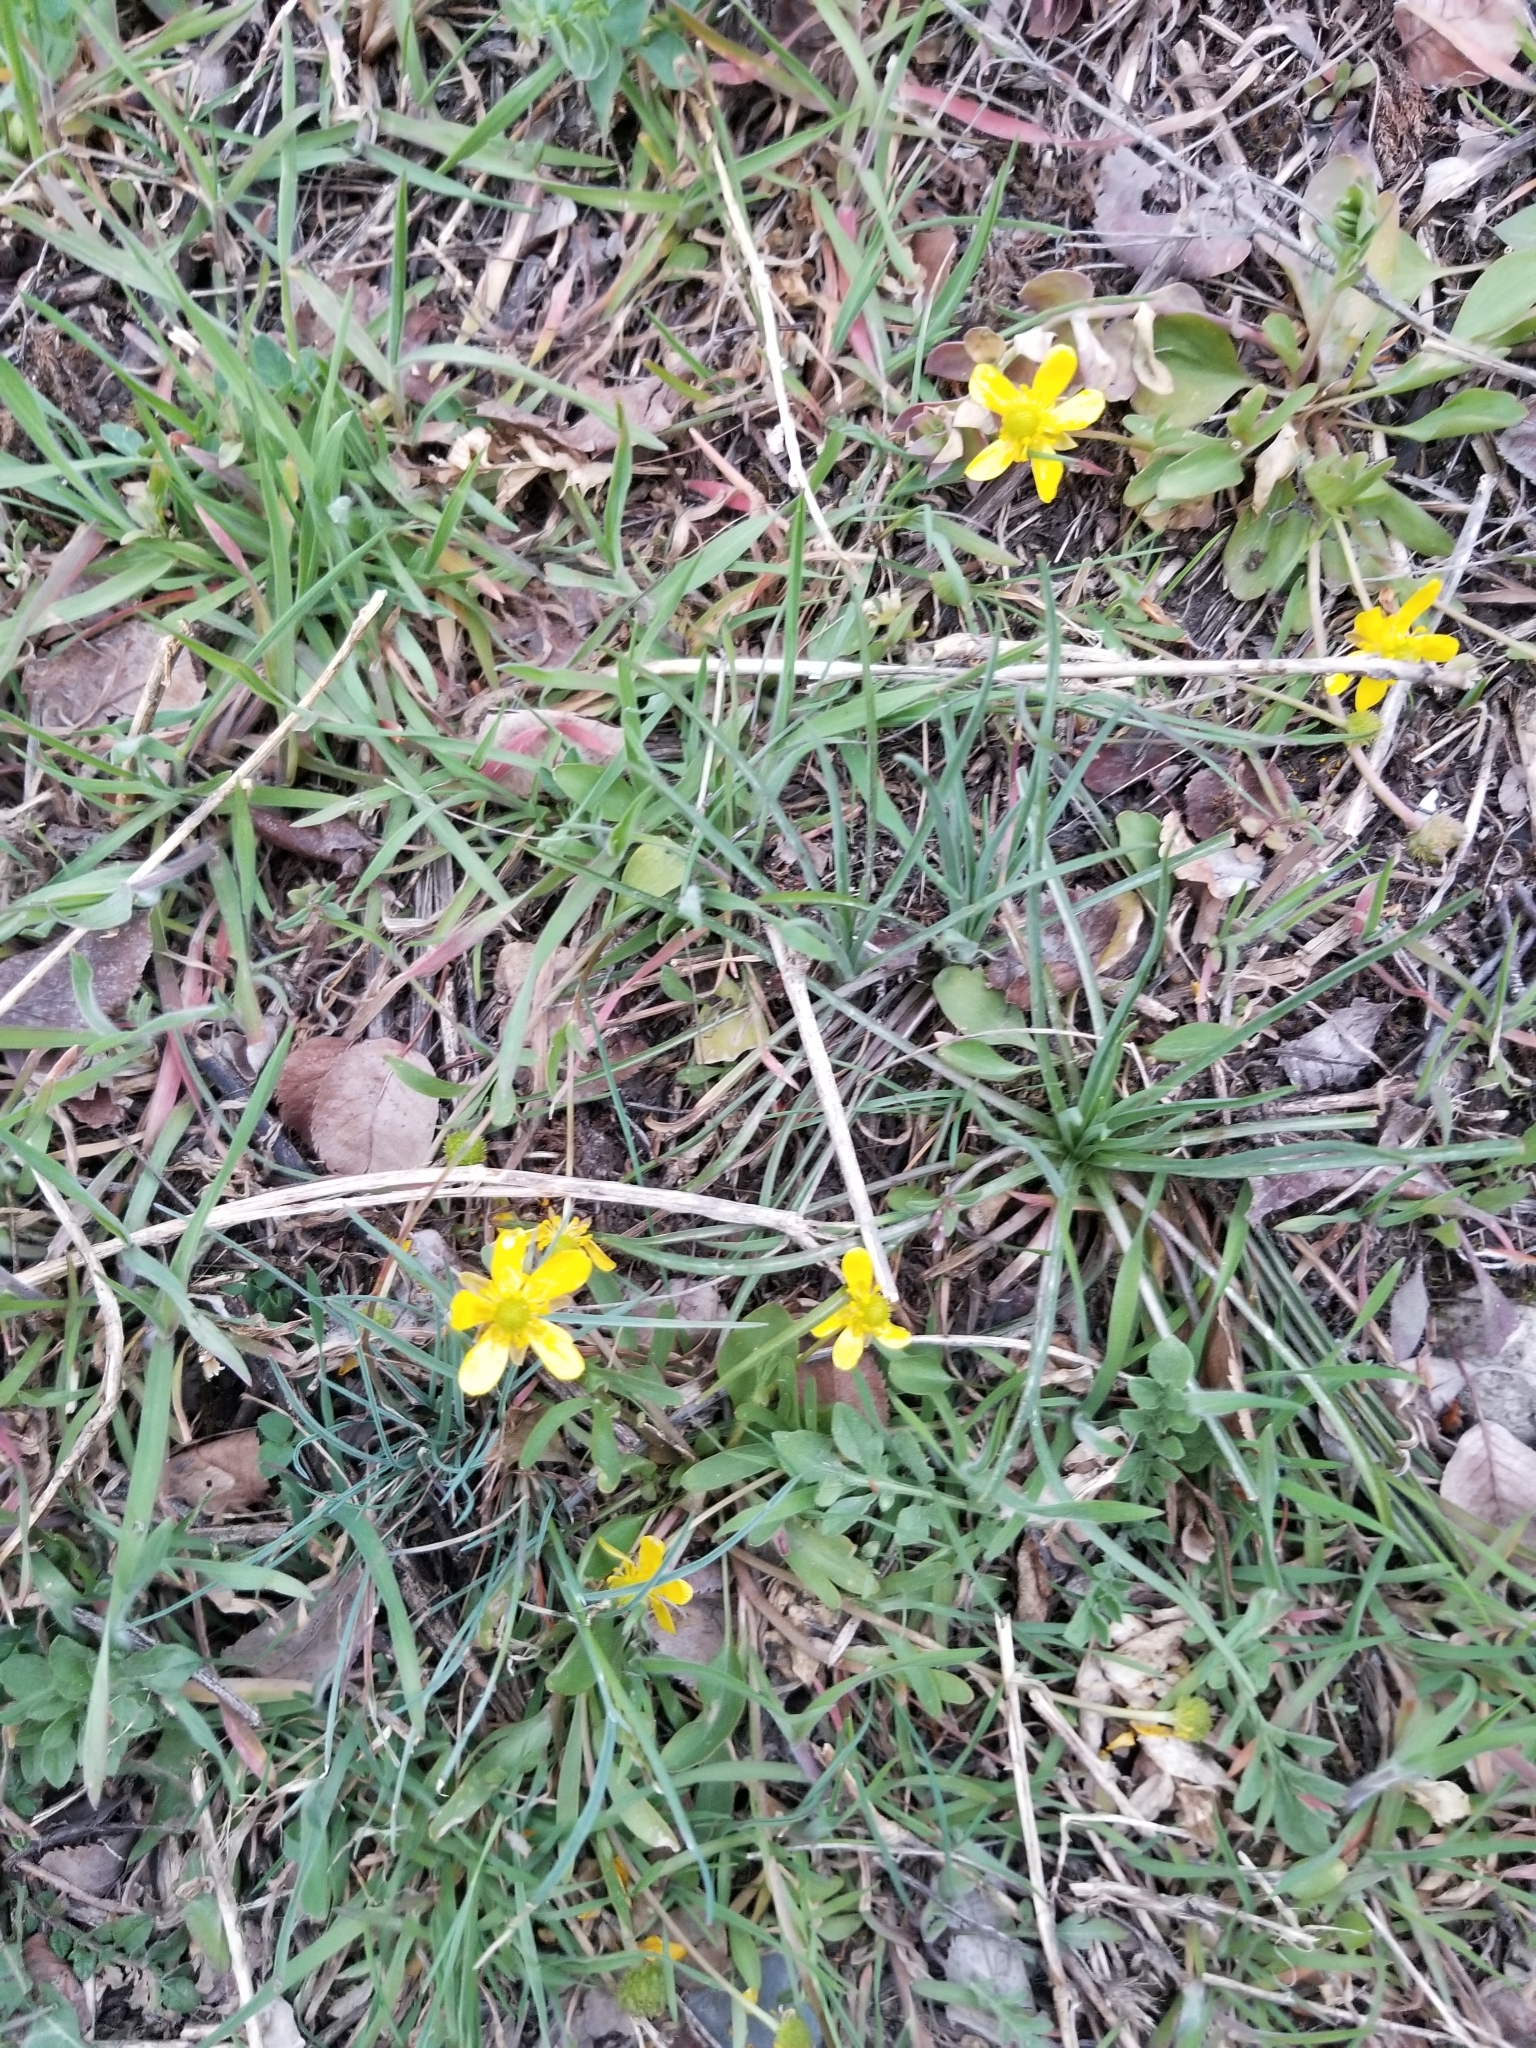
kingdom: Plantae
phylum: Tracheophyta
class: Magnoliopsida
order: Ranunculales
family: Ranunculaceae
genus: Ranunculus
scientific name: Ranunculus glaberrimus
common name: Sagebrush buttercup
